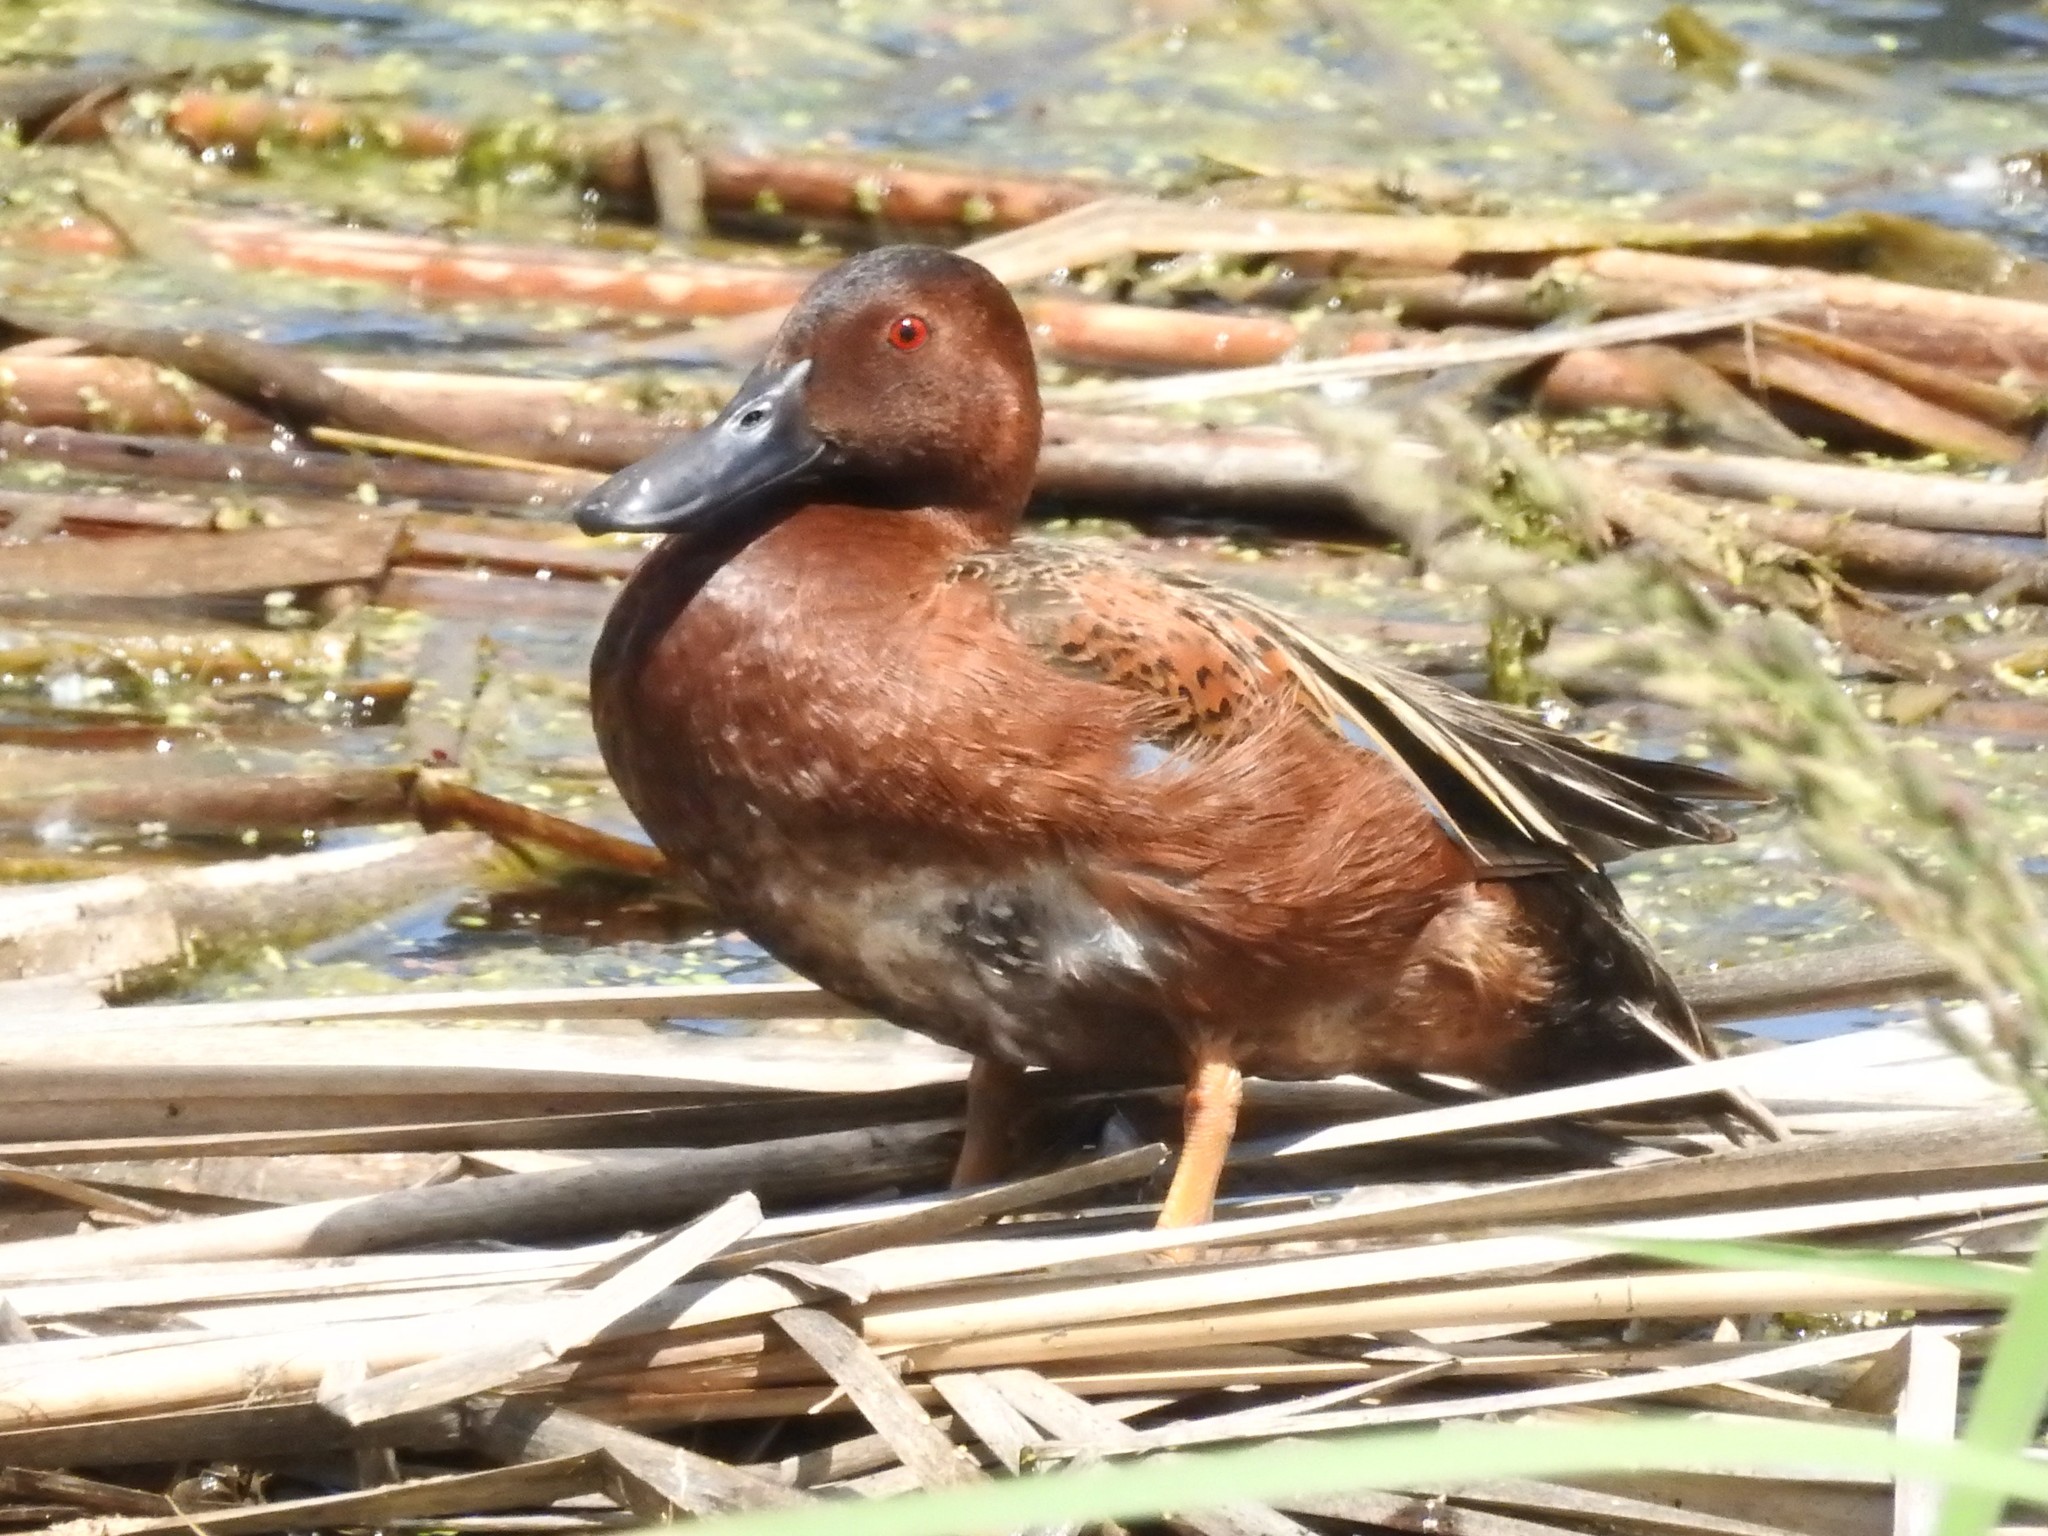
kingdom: Animalia
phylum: Chordata
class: Aves
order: Anseriformes
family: Anatidae
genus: Spatula
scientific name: Spatula cyanoptera
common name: Cinnamon teal
